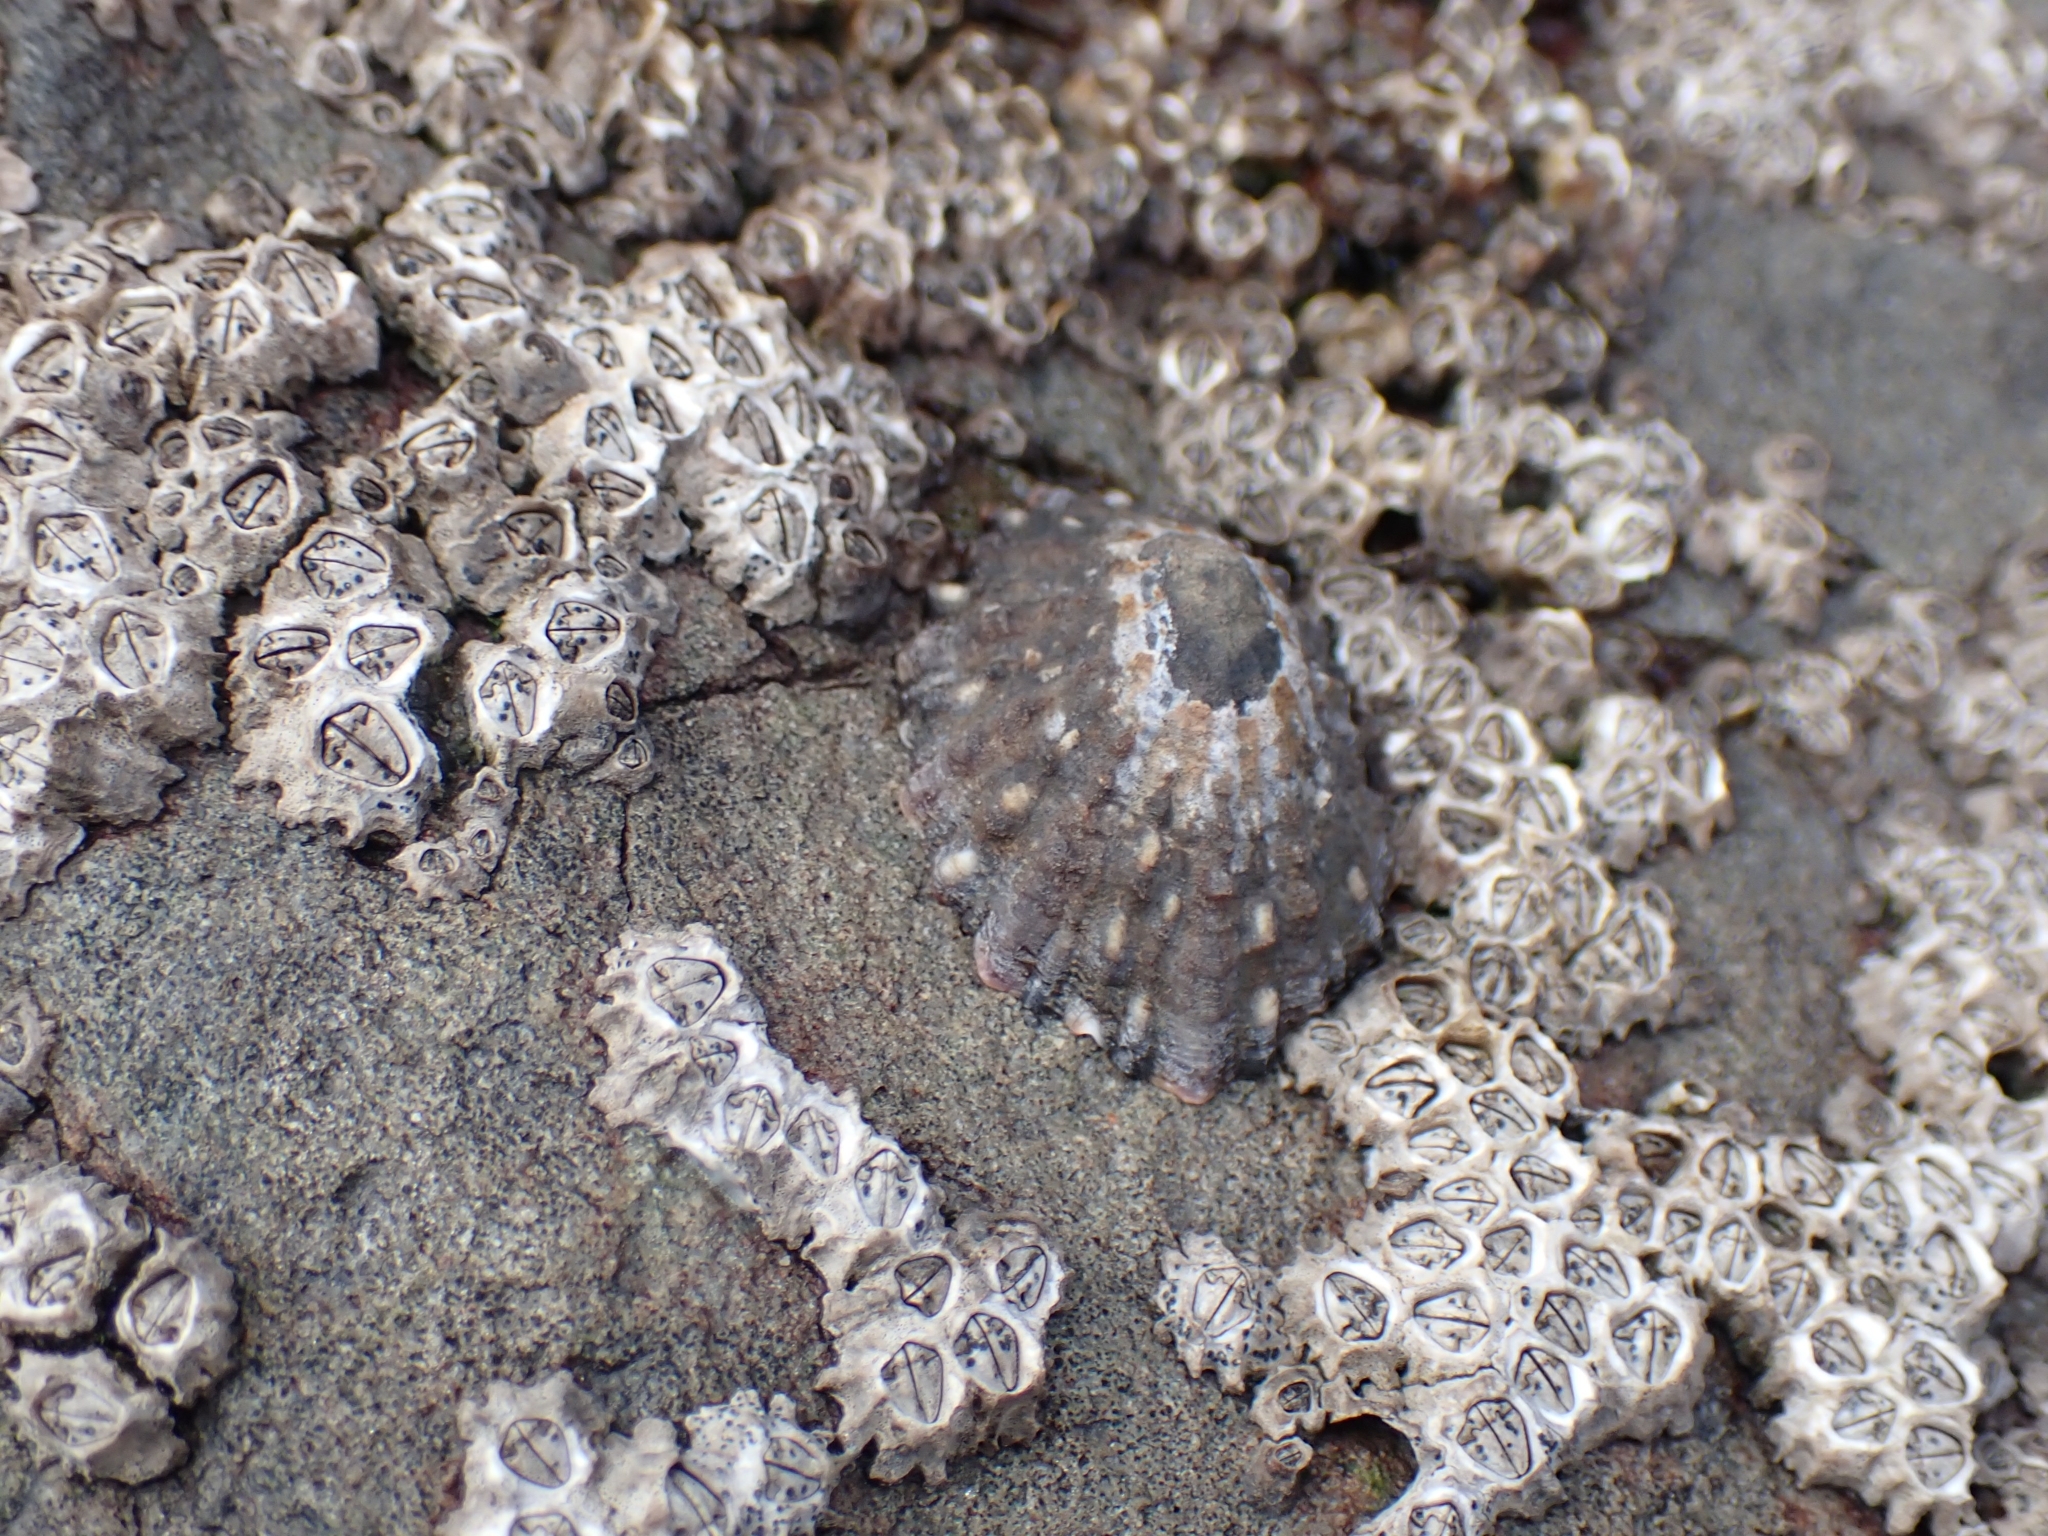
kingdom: Animalia
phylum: Mollusca
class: Gastropoda
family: Nacellidae
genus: Cellana
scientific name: Cellana ornata
